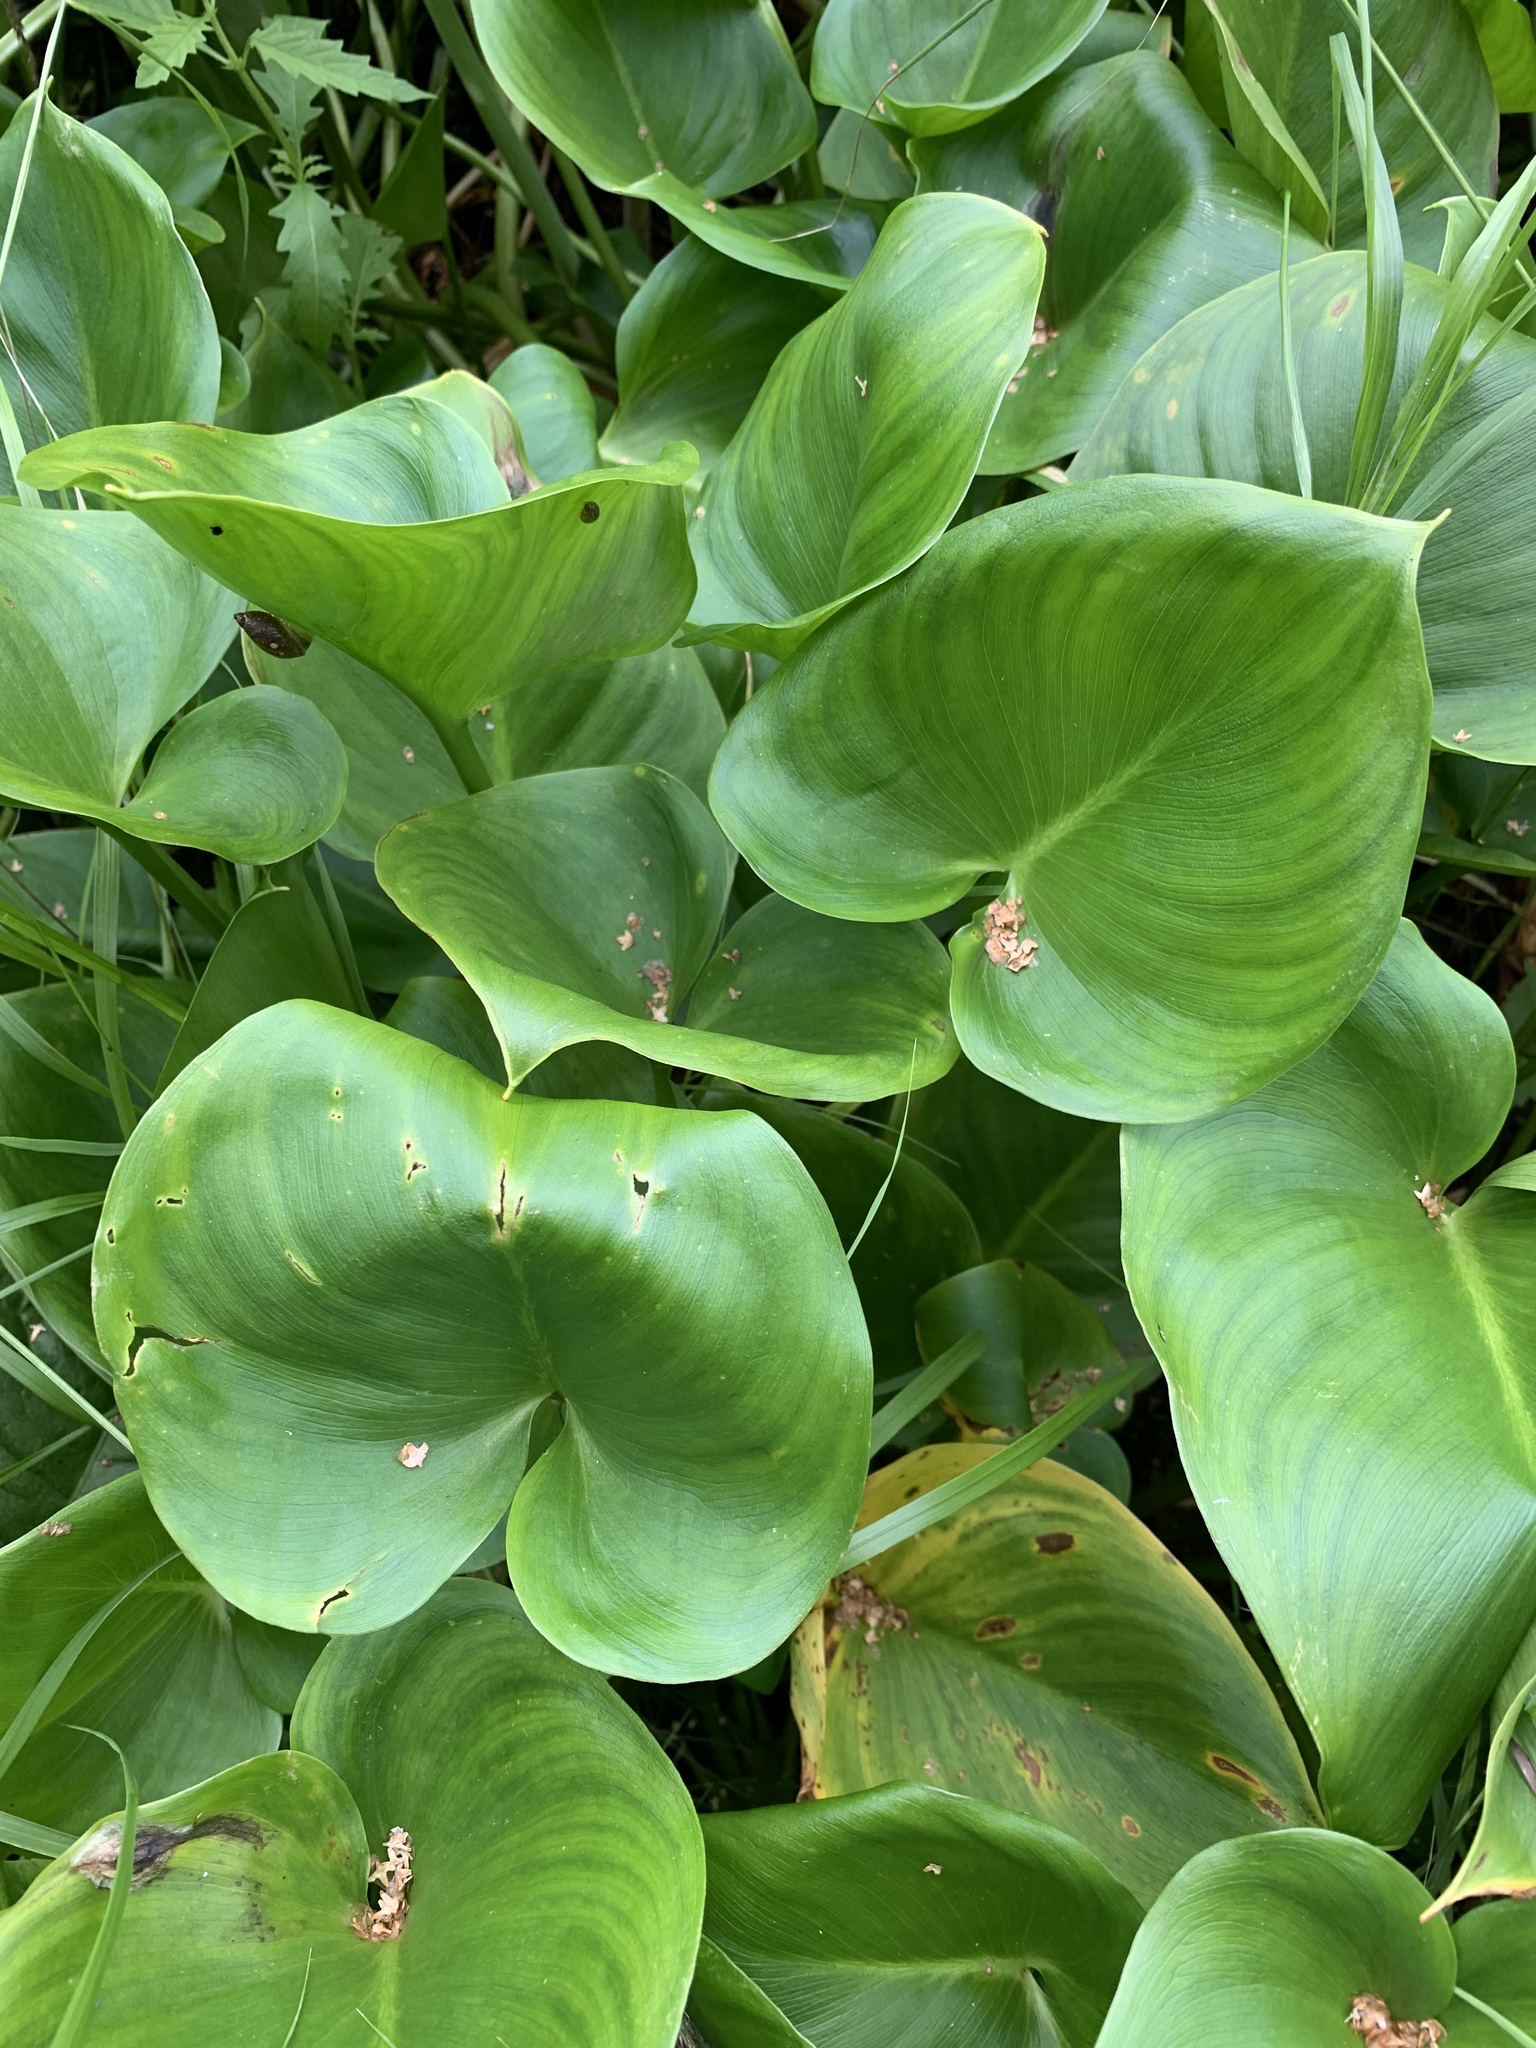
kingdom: Plantae
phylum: Tracheophyta
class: Liliopsida
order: Alismatales
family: Araceae
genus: Calla
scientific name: Calla palustris
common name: Bog arum
